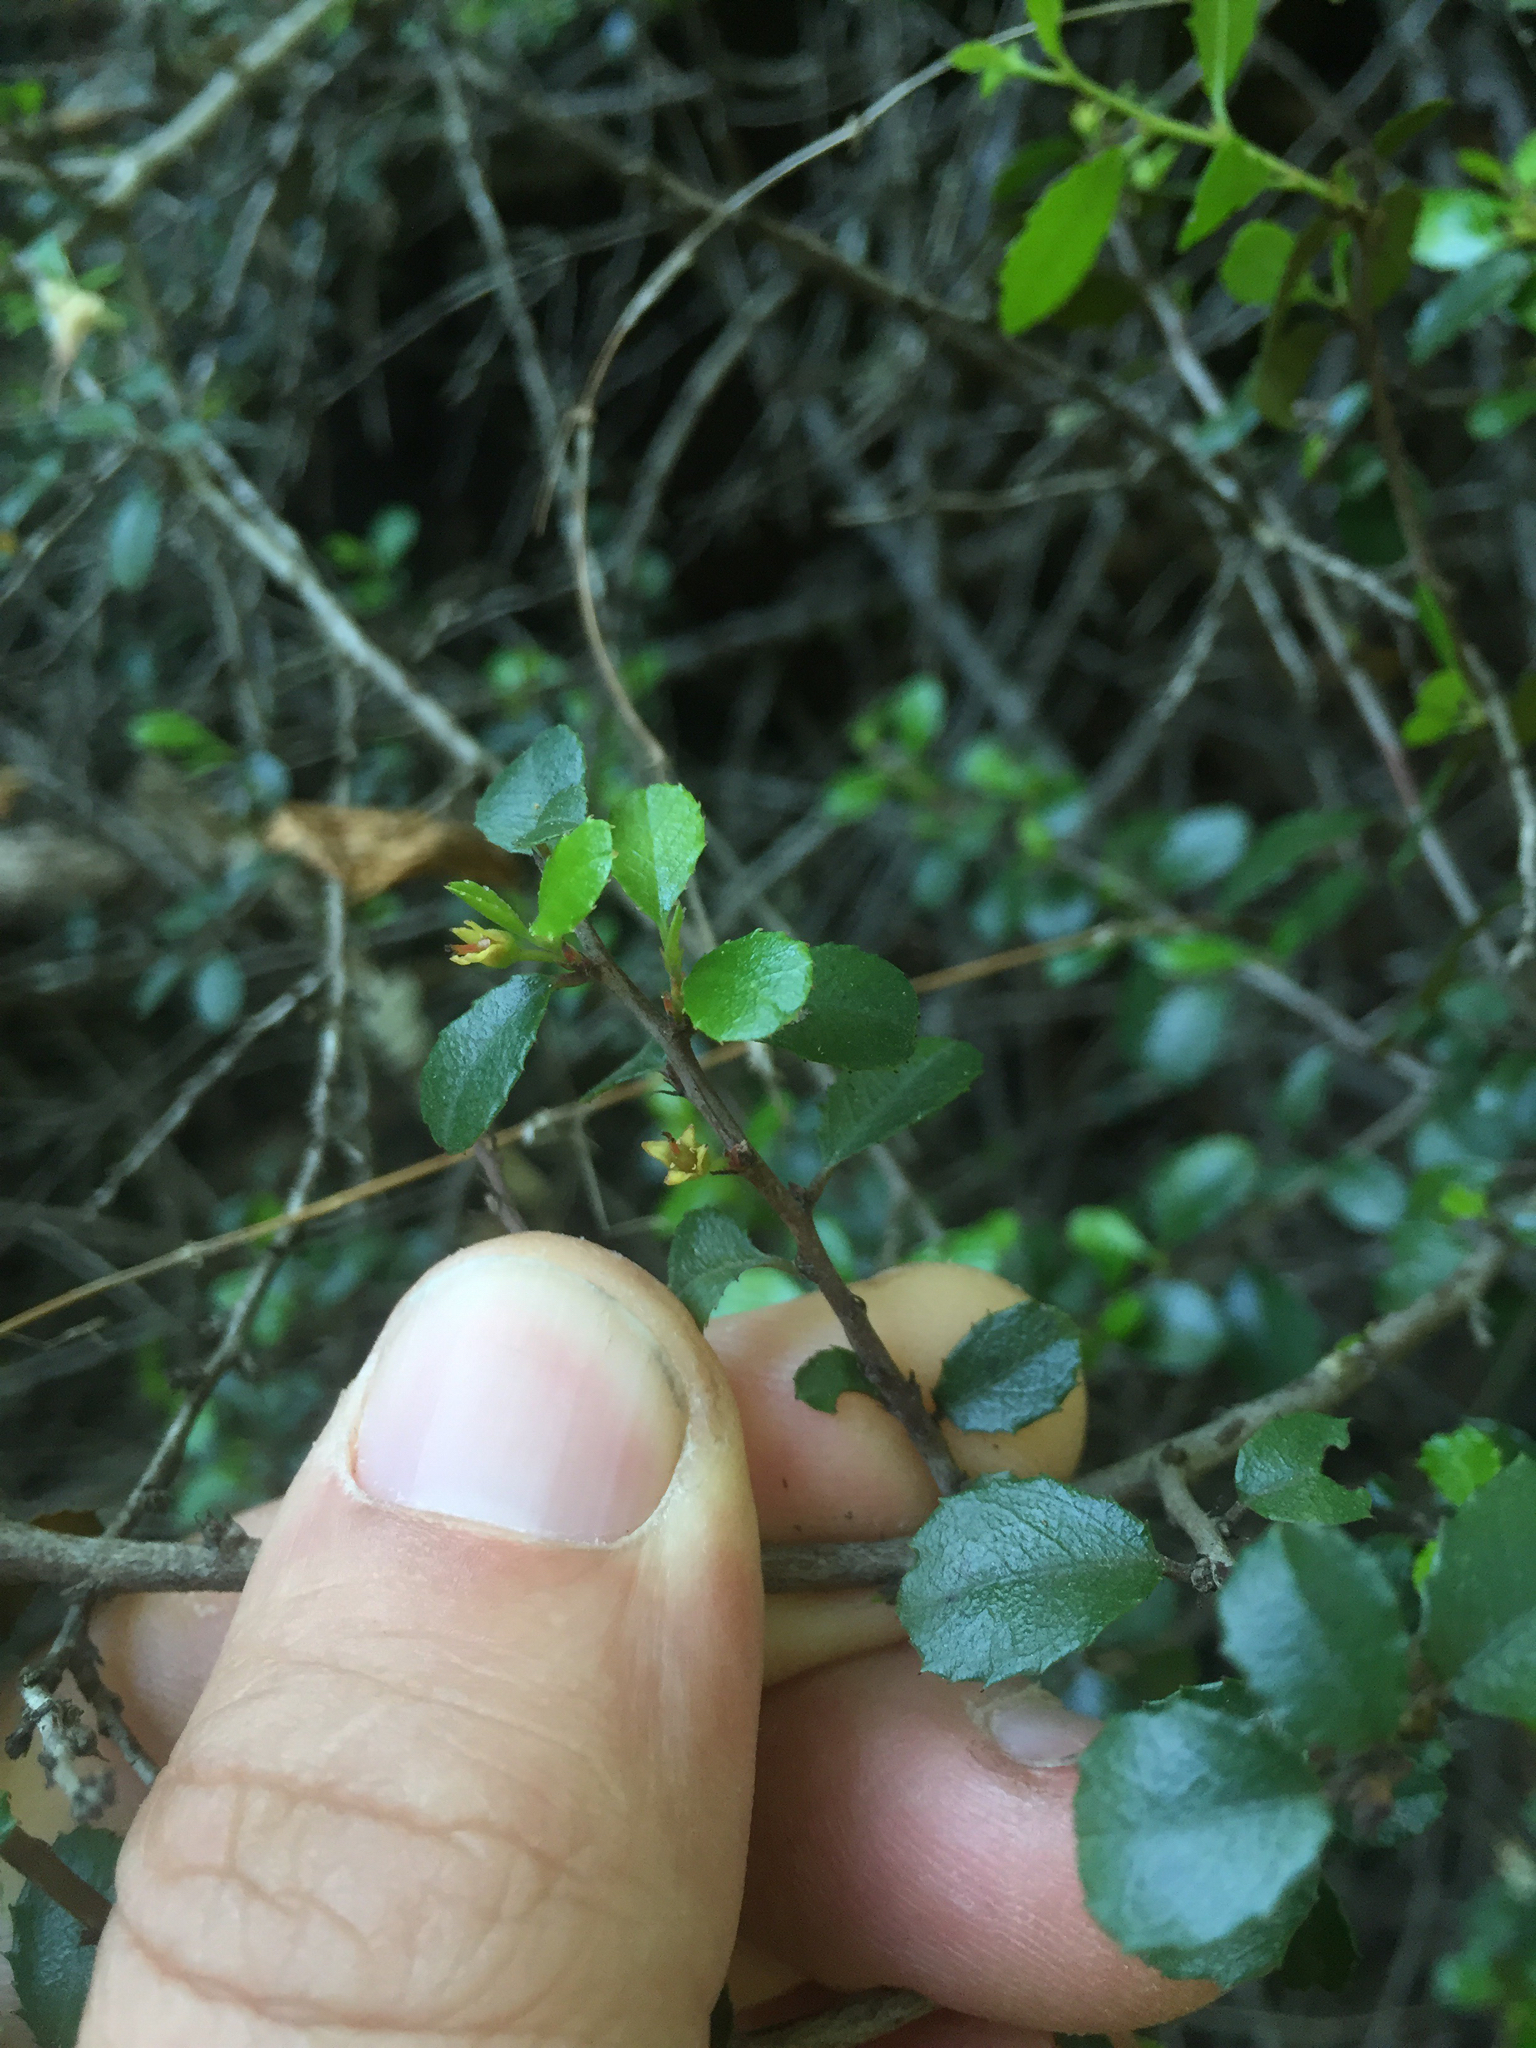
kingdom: Plantae
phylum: Tracheophyta
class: Magnoliopsida
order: Rosales
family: Rhamnaceae
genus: Endotropis
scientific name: Endotropis crocea
